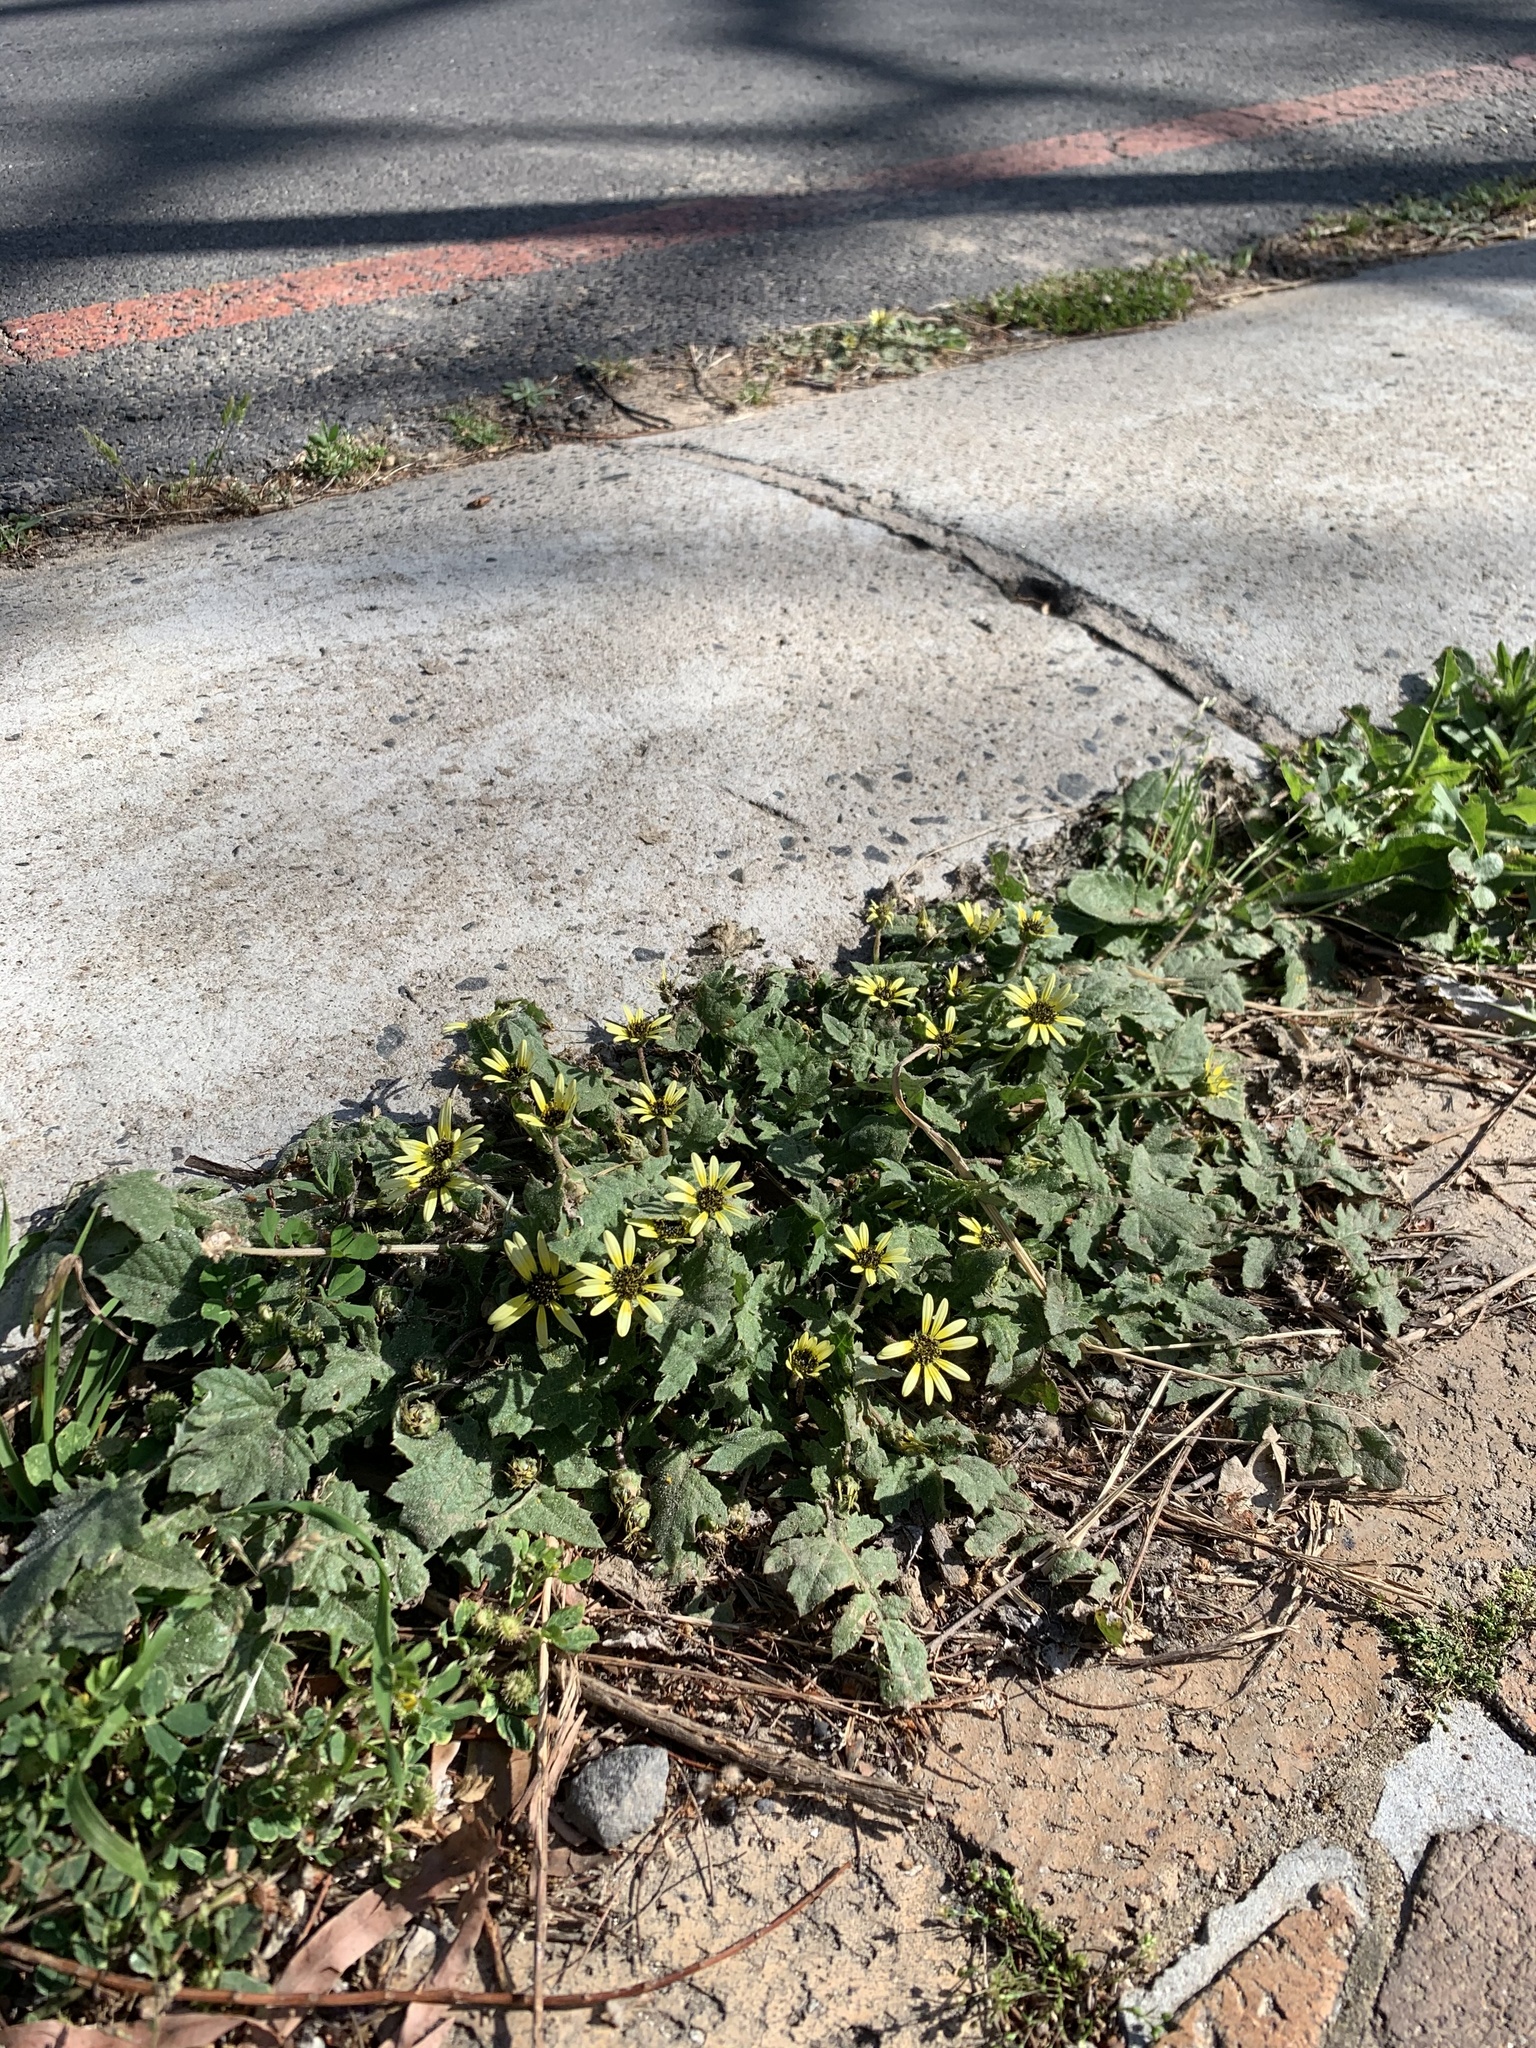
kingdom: Plantae
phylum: Tracheophyta
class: Magnoliopsida
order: Asterales
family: Asteraceae
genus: Arctotheca
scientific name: Arctotheca calendula
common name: Capeweed
